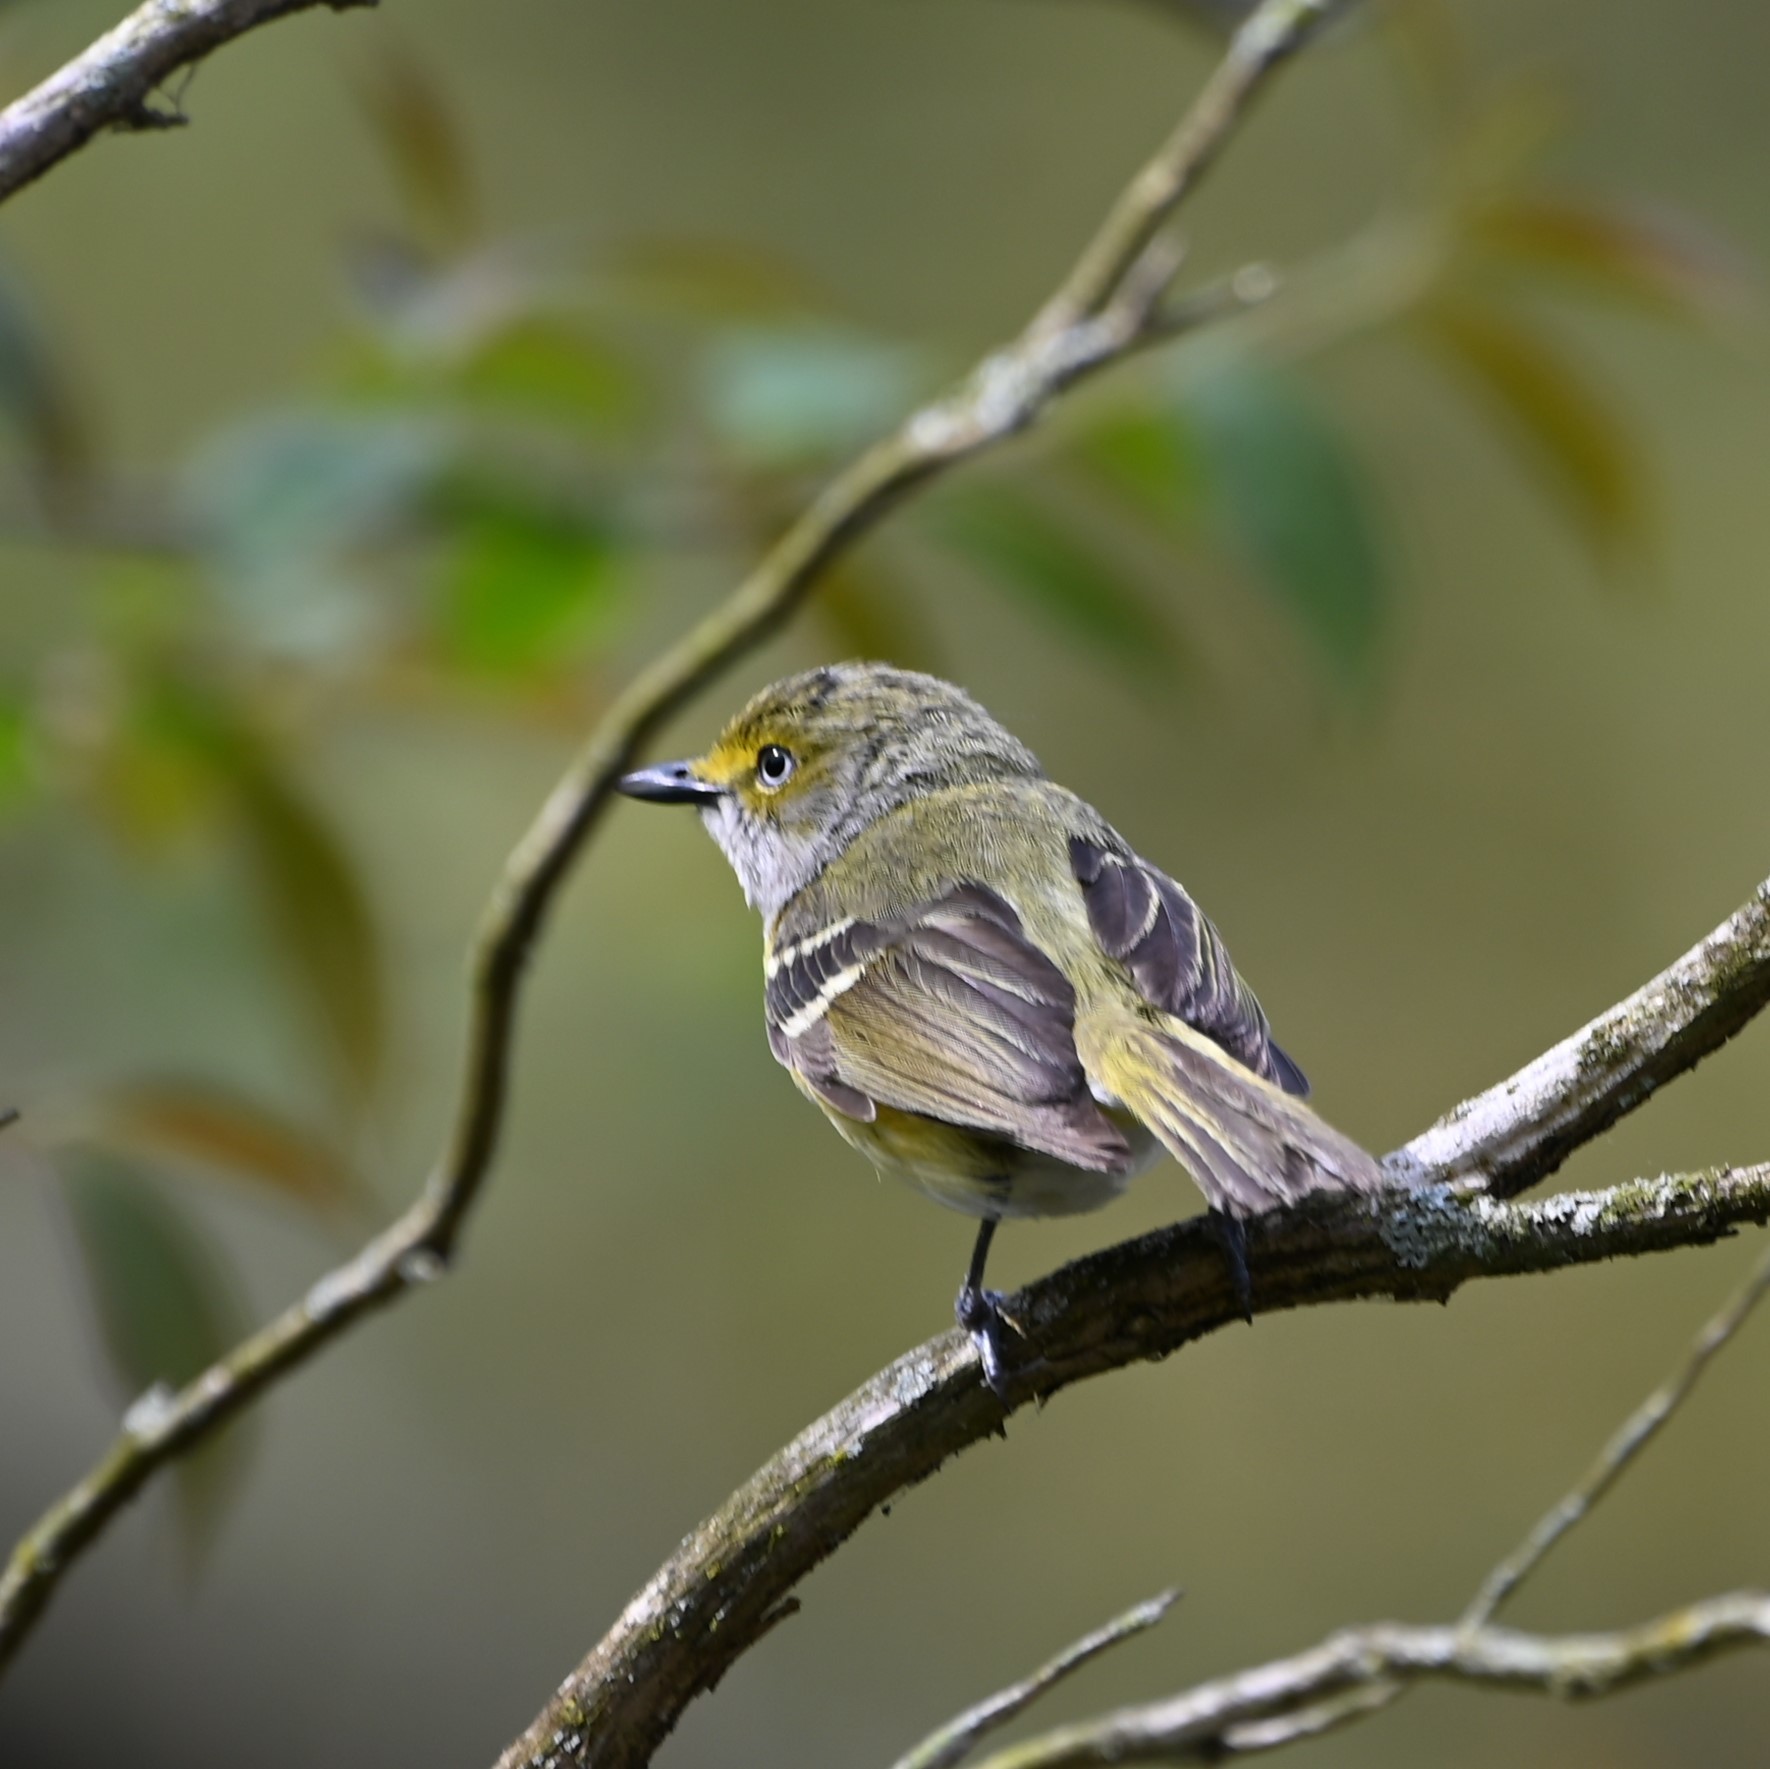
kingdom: Animalia
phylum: Chordata
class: Aves
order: Passeriformes
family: Vireonidae
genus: Vireo
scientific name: Vireo griseus
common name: White-eyed vireo
